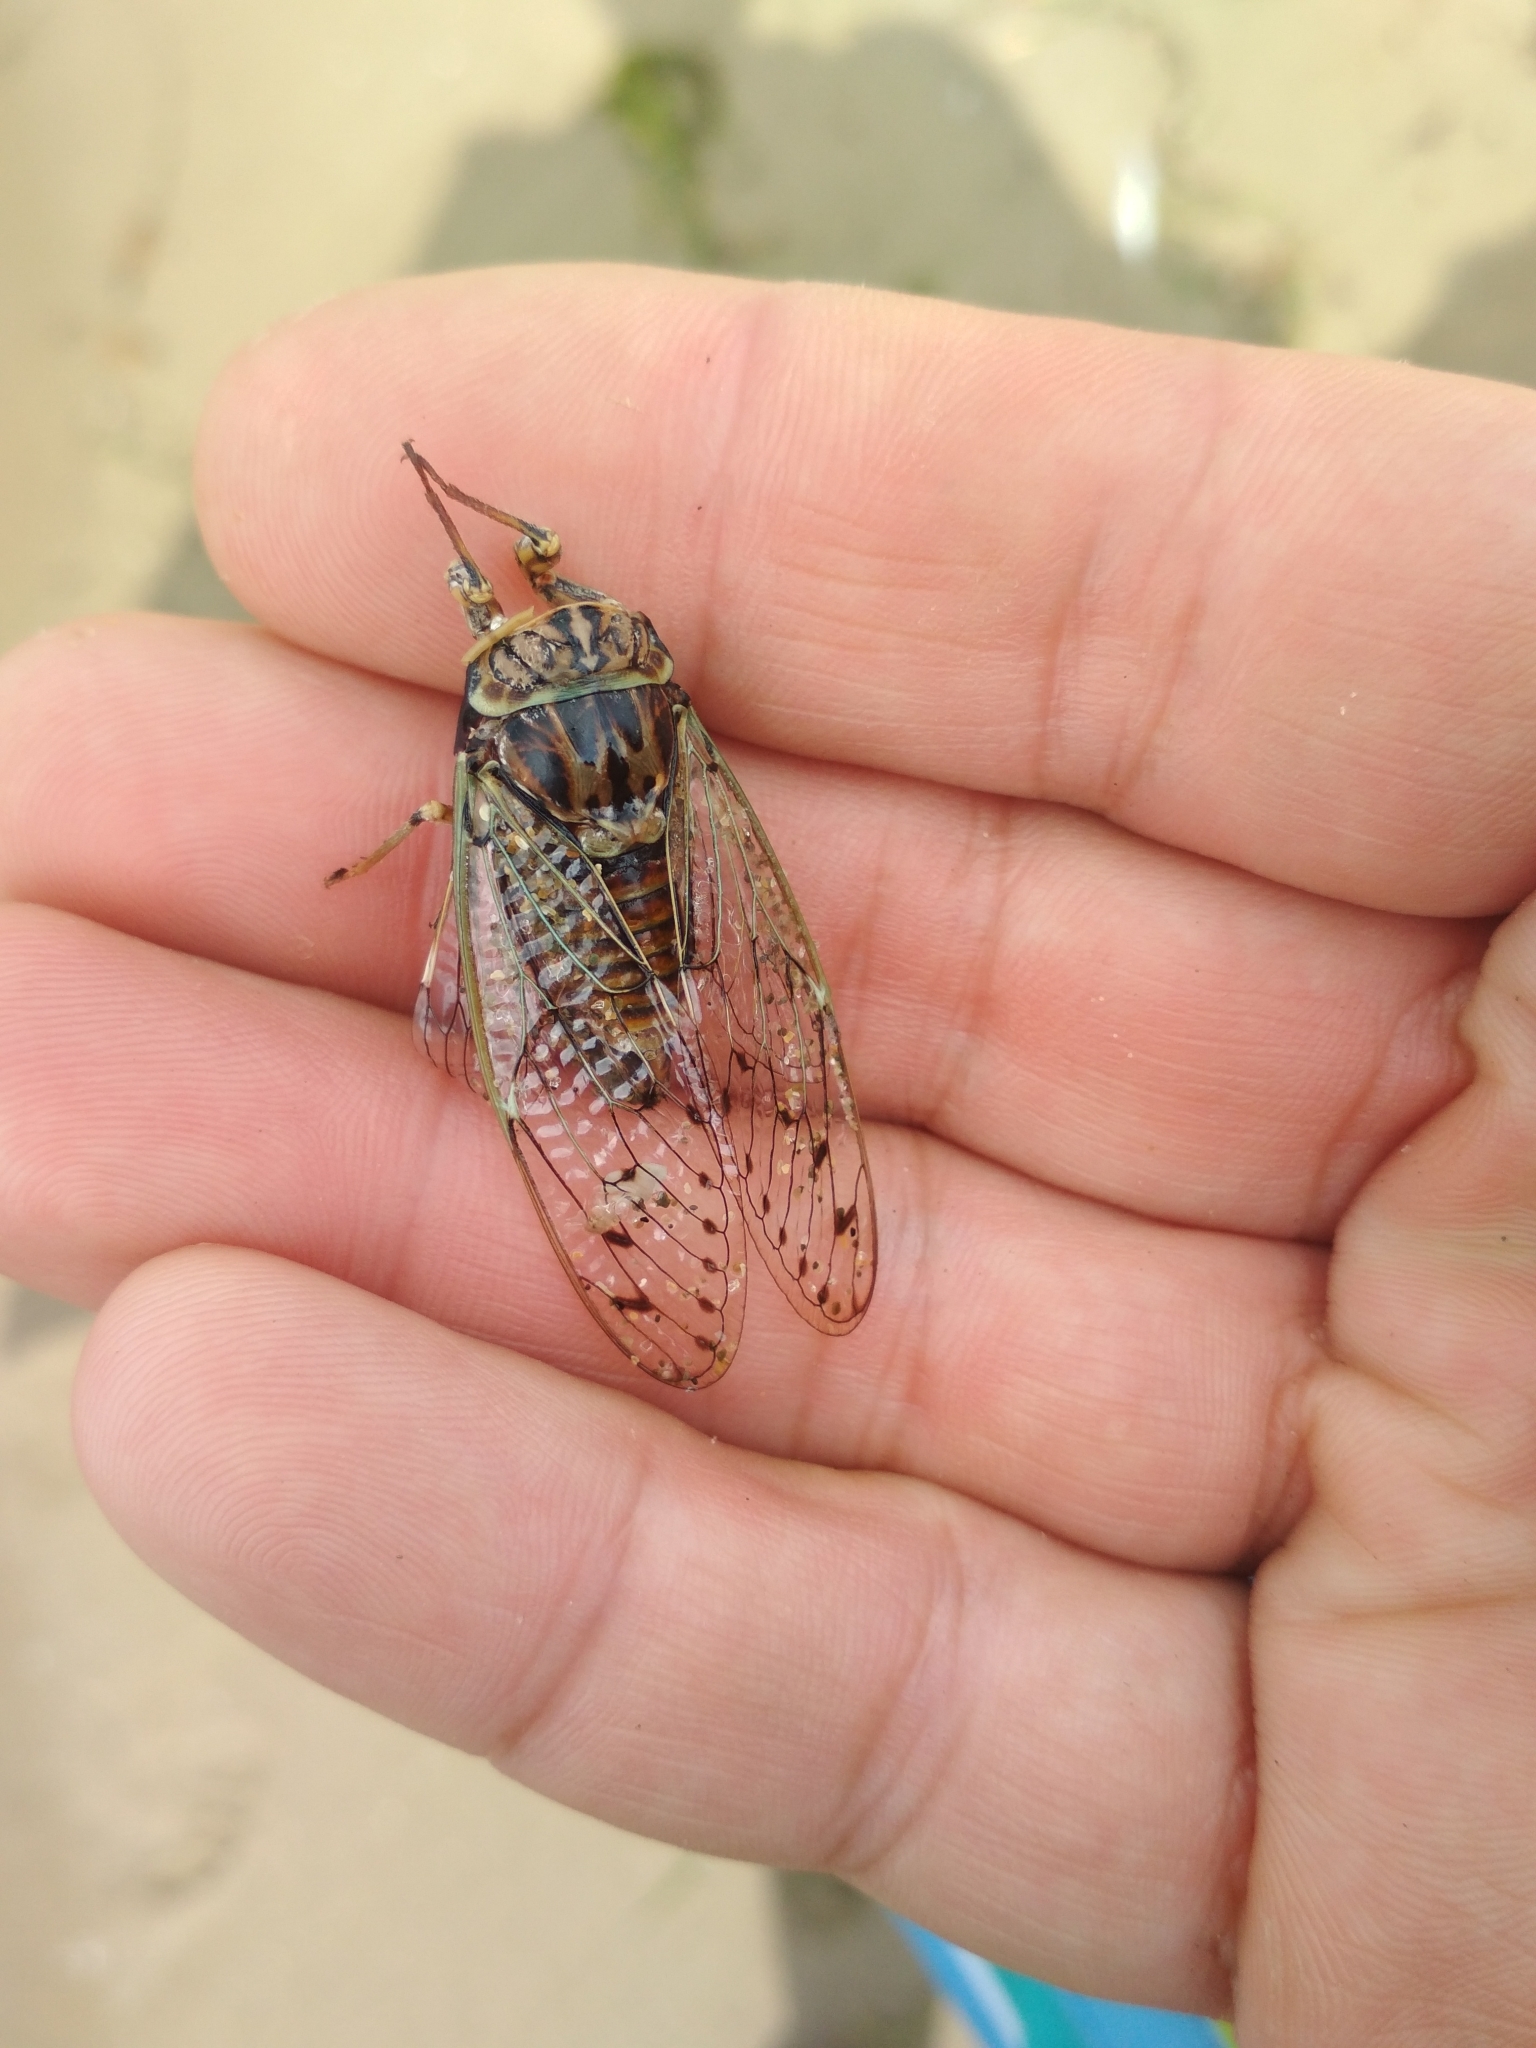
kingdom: Animalia
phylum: Arthropoda
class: Insecta
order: Hemiptera
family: Cicadidae
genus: Cicada
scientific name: Cicada orni
